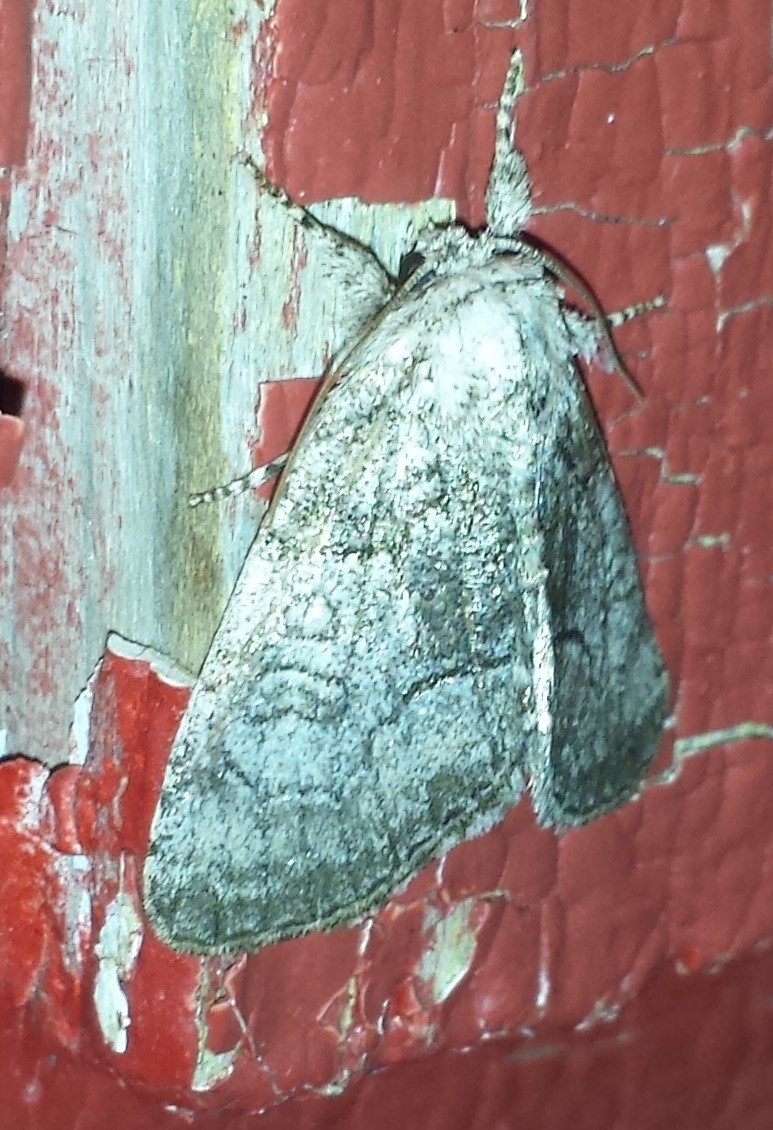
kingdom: Animalia
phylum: Arthropoda
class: Insecta
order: Lepidoptera
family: Noctuidae
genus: Raphia
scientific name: Raphia frater
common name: Brother
